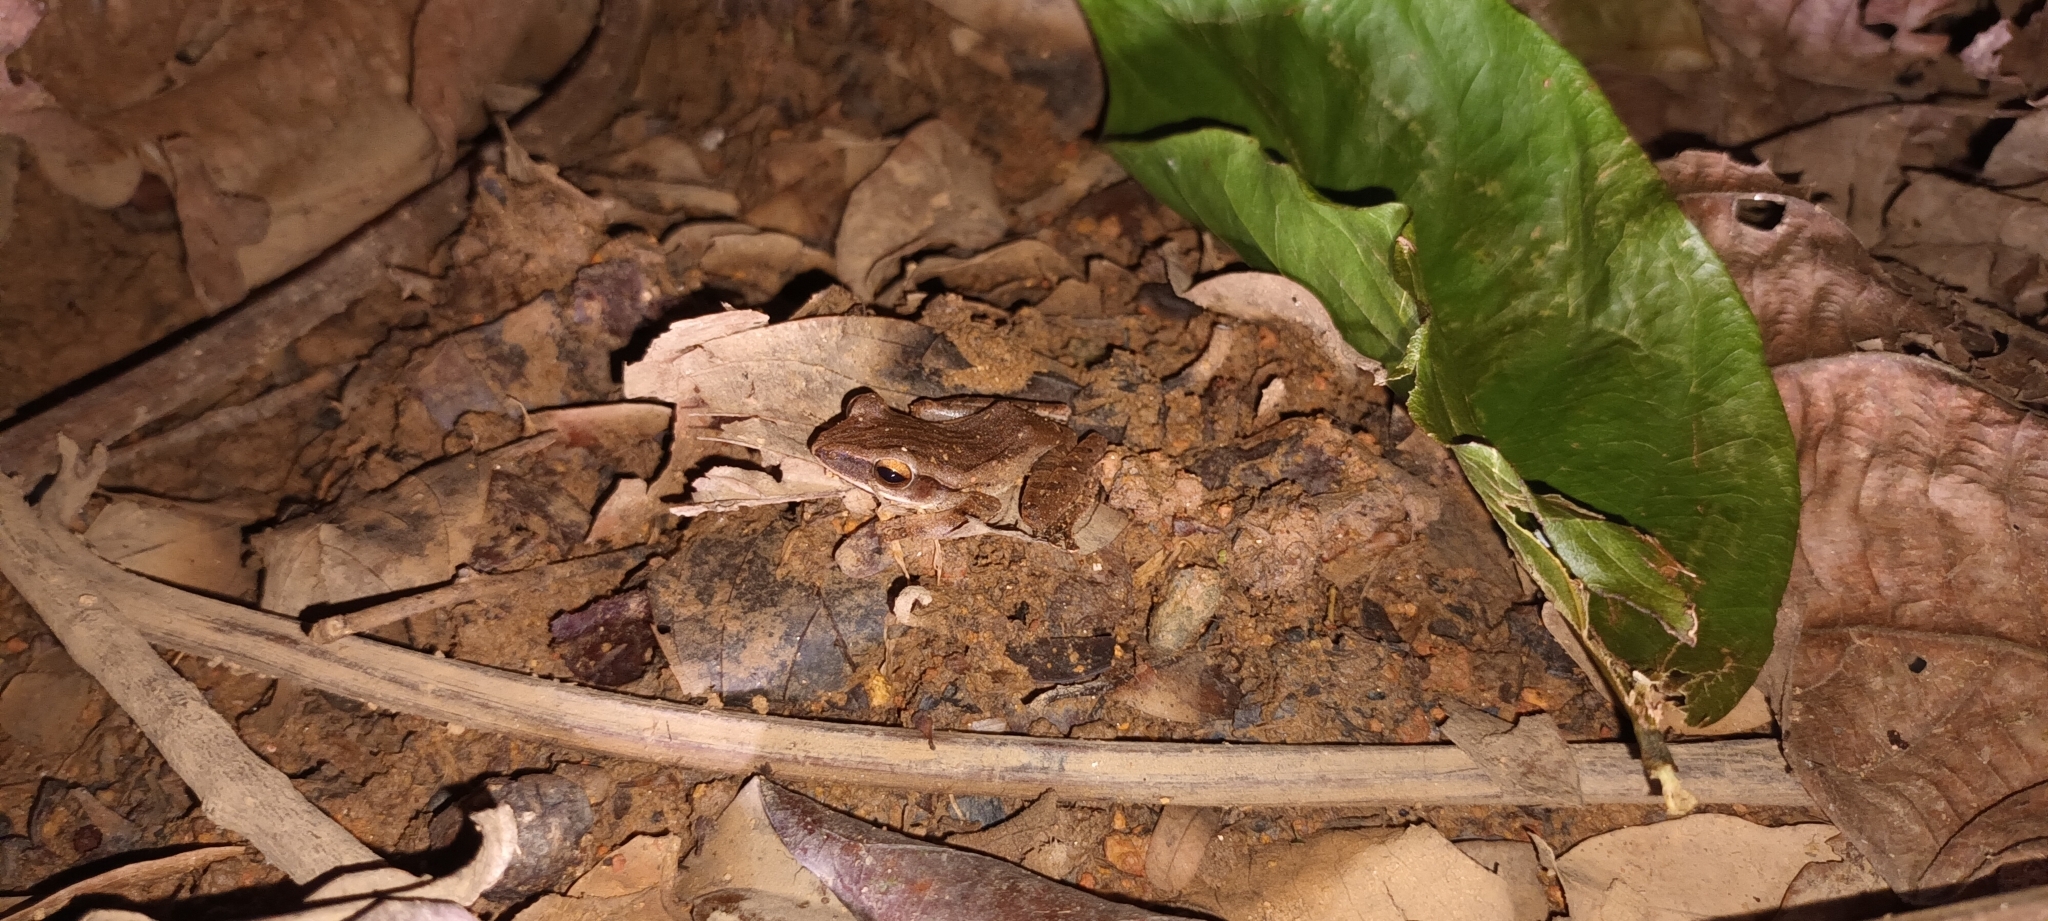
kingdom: Animalia
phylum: Chordata
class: Amphibia
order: Anura
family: Rhacophoridae
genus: Polypedates
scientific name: Polypedates leucomystax
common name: Common tree frog/four-lined tree frog
